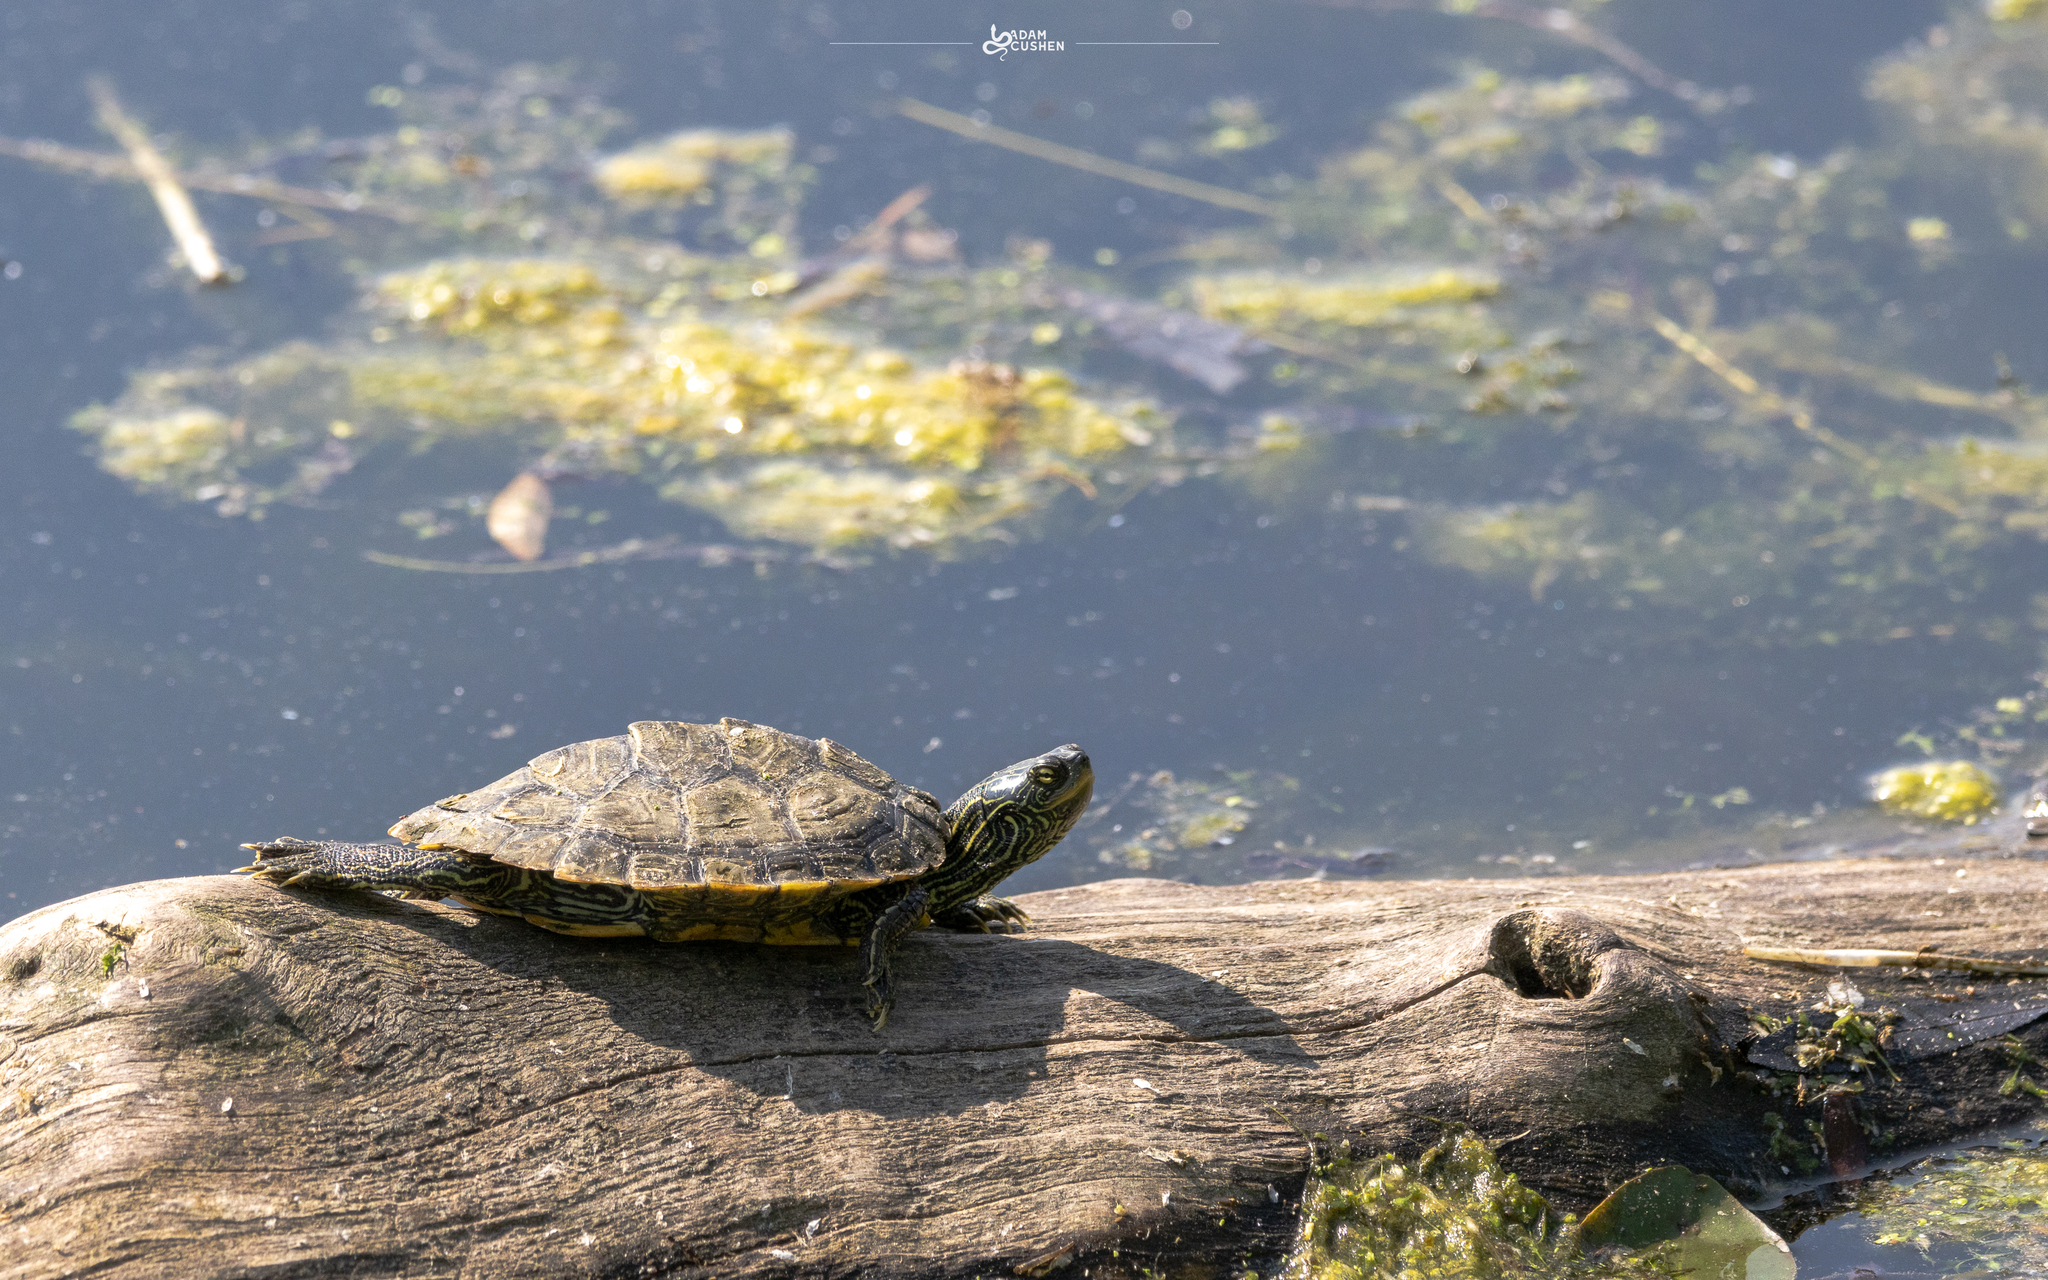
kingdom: Animalia
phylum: Chordata
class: Testudines
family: Emydidae
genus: Graptemys
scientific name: Graptemys geographica
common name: Common map turtle
